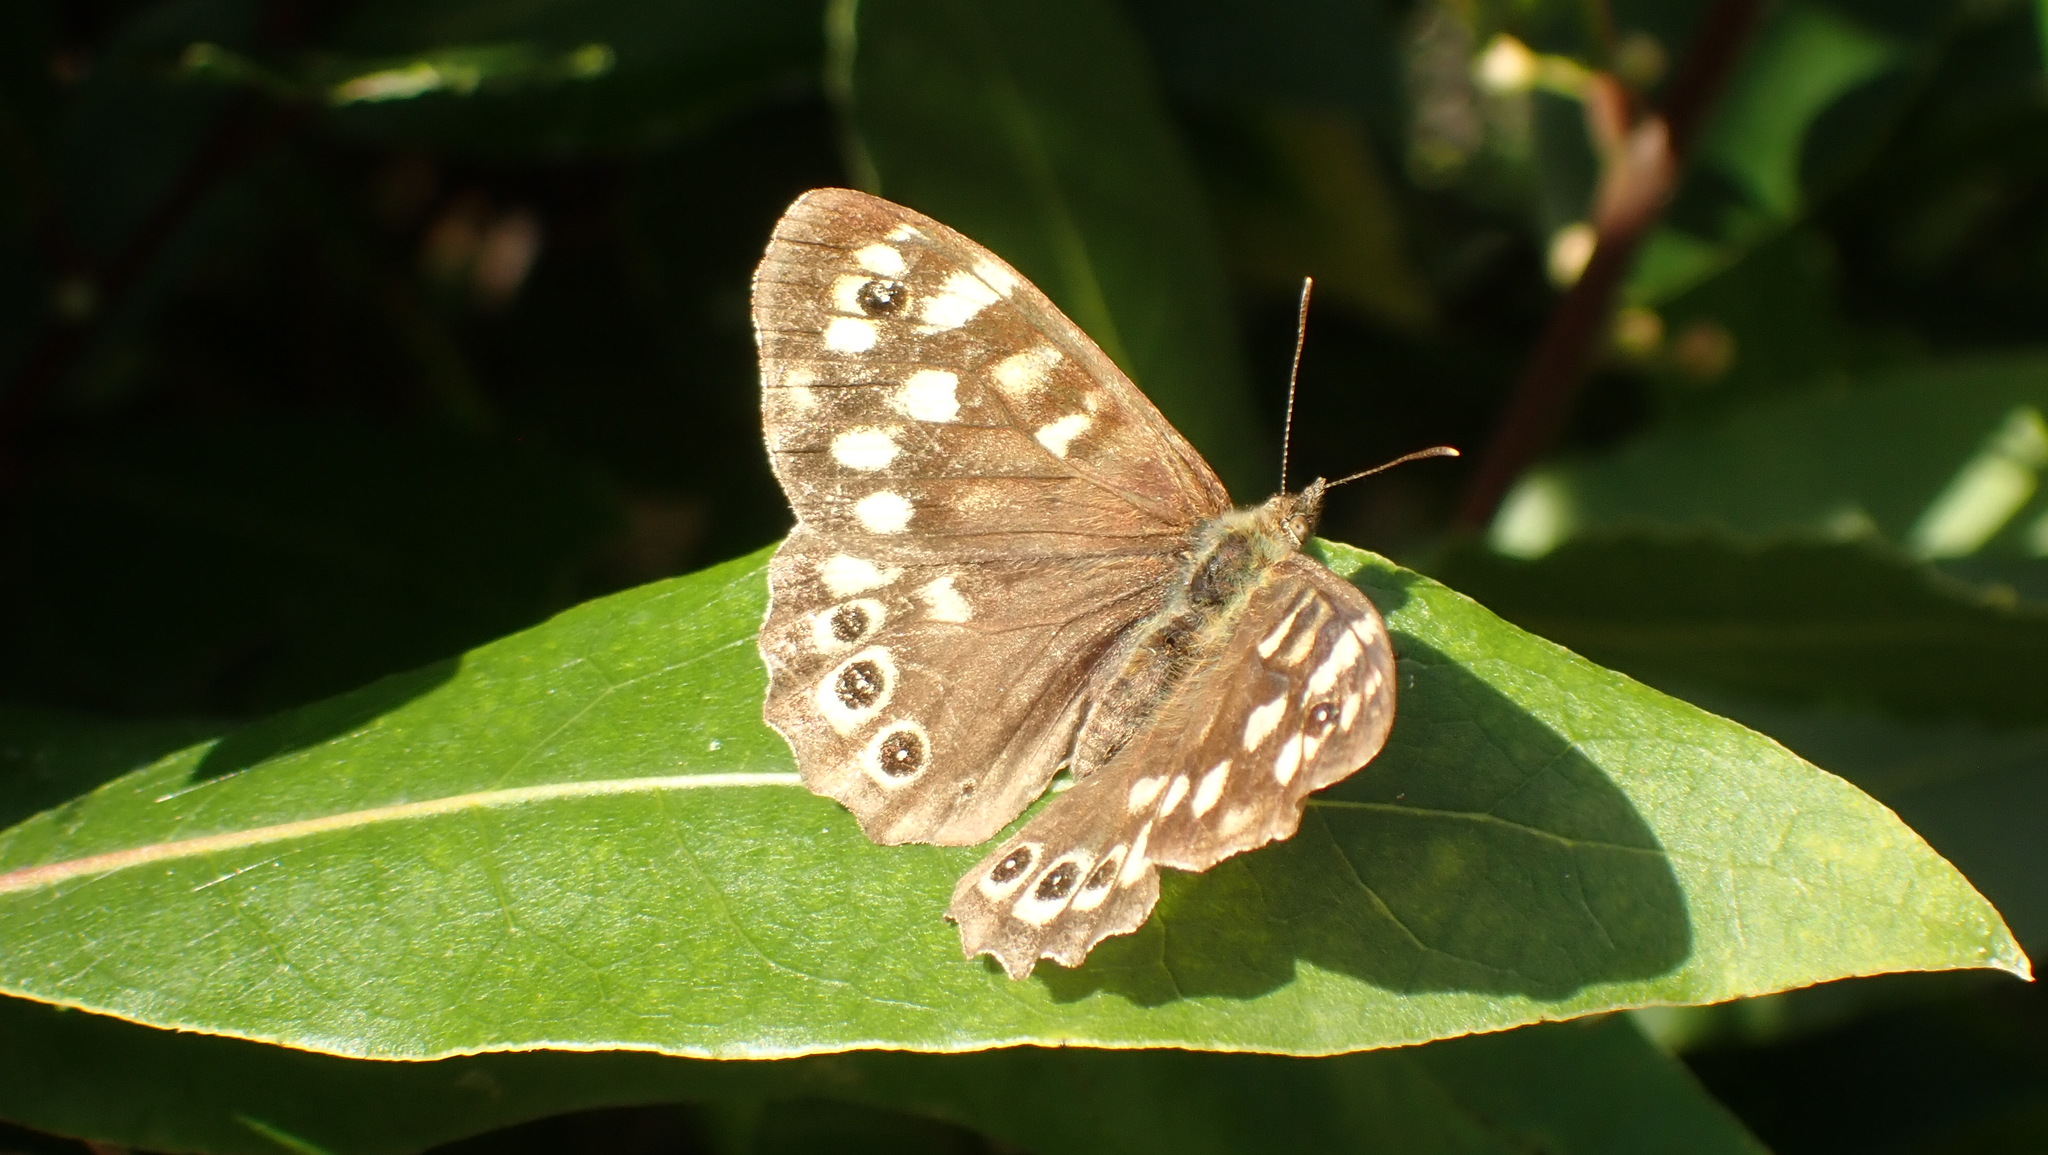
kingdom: Animalia
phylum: Arthropoda
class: Insecta
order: Lepidoptera
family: Nymphalidae
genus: Pararge
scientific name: Pararge aegeria
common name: Speckled wood
